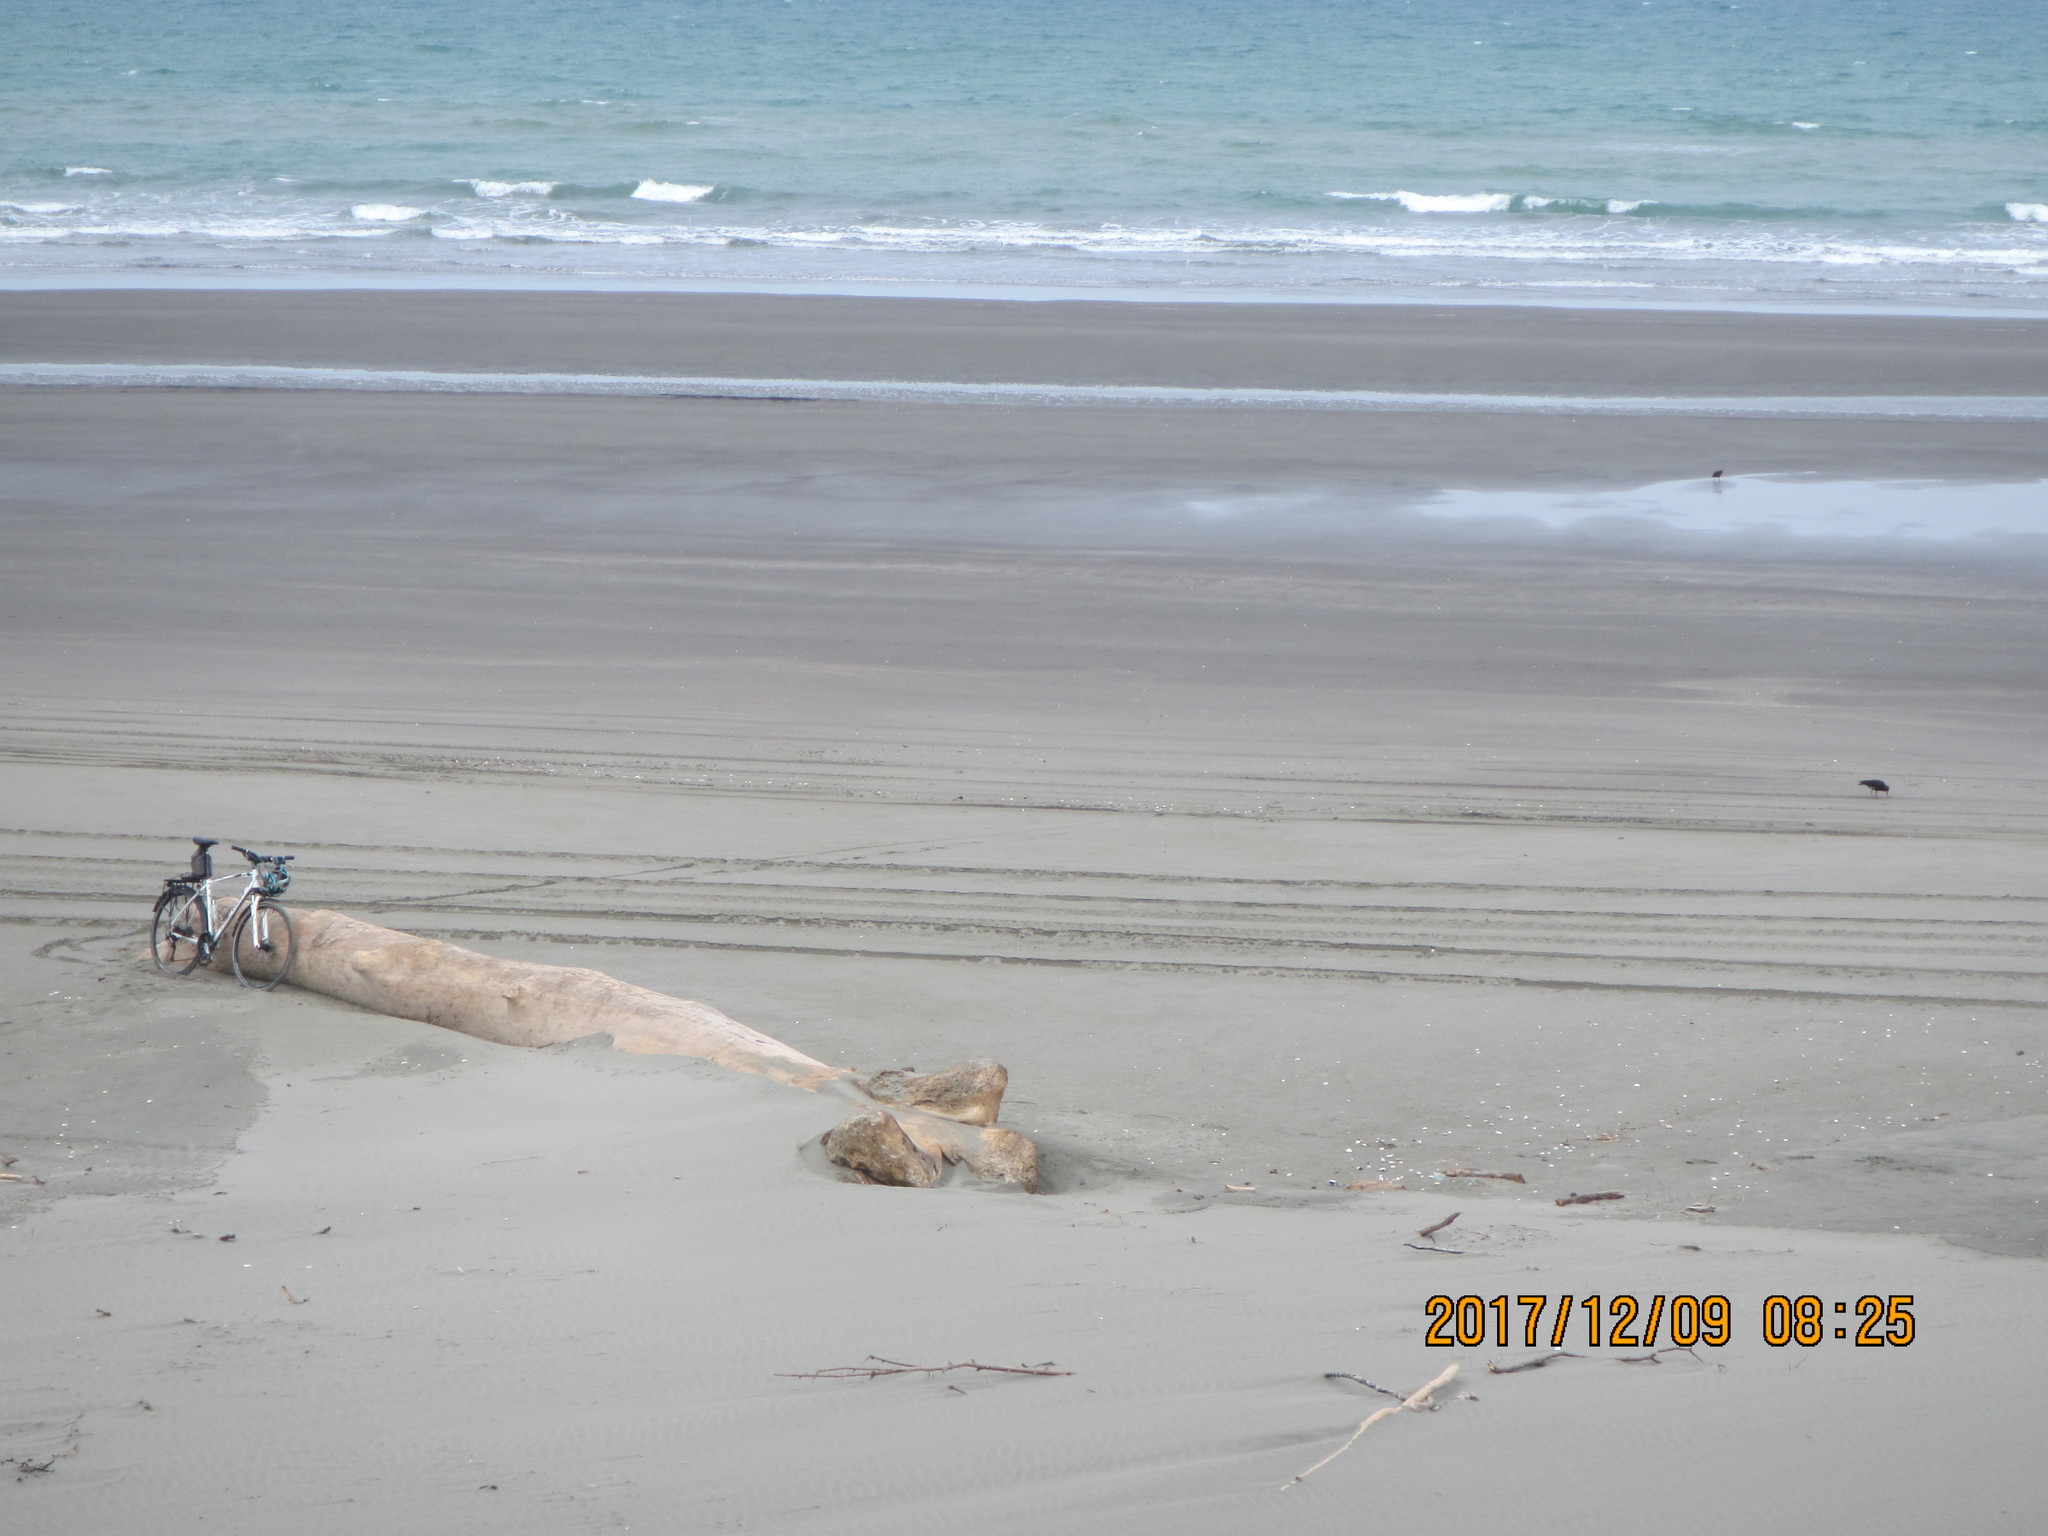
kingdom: Animalia
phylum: Chordata
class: Aves
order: Charadriiformes
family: Haematopodidae
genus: Haematopus
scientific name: Haematopus unicolor
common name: Variable oystercatcher
